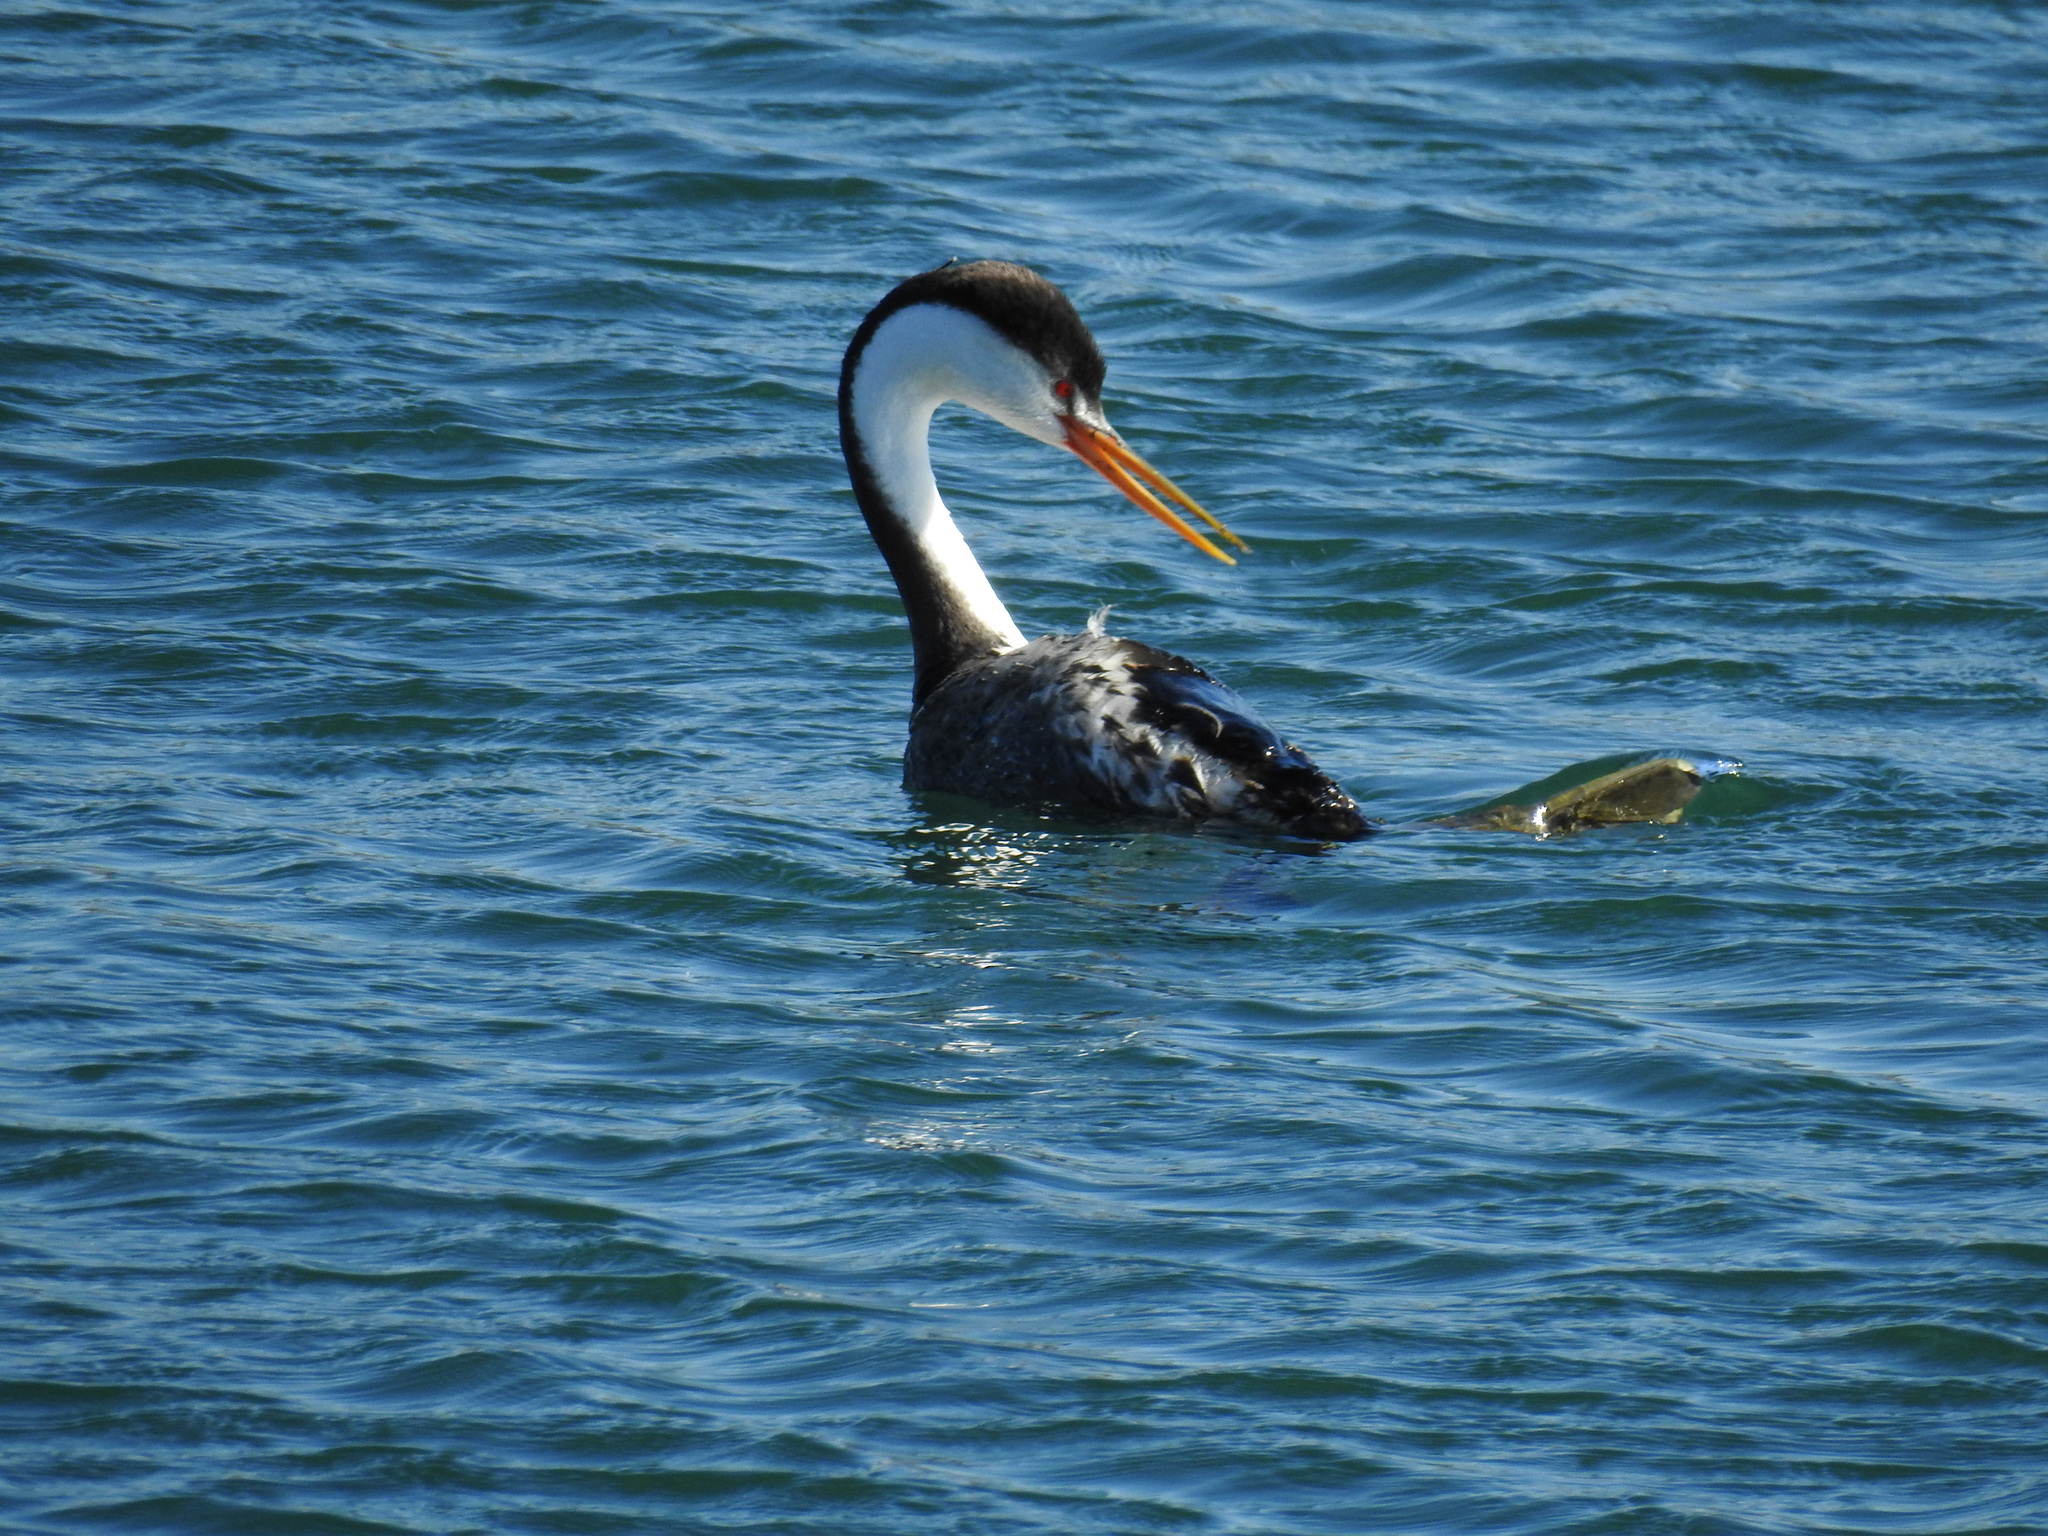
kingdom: Animalia
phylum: Chordata
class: Aves
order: Podicipediformes
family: Podicipedidae
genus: Aechmophorus
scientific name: Aechmophorus clarkii
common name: Clark's grebe
